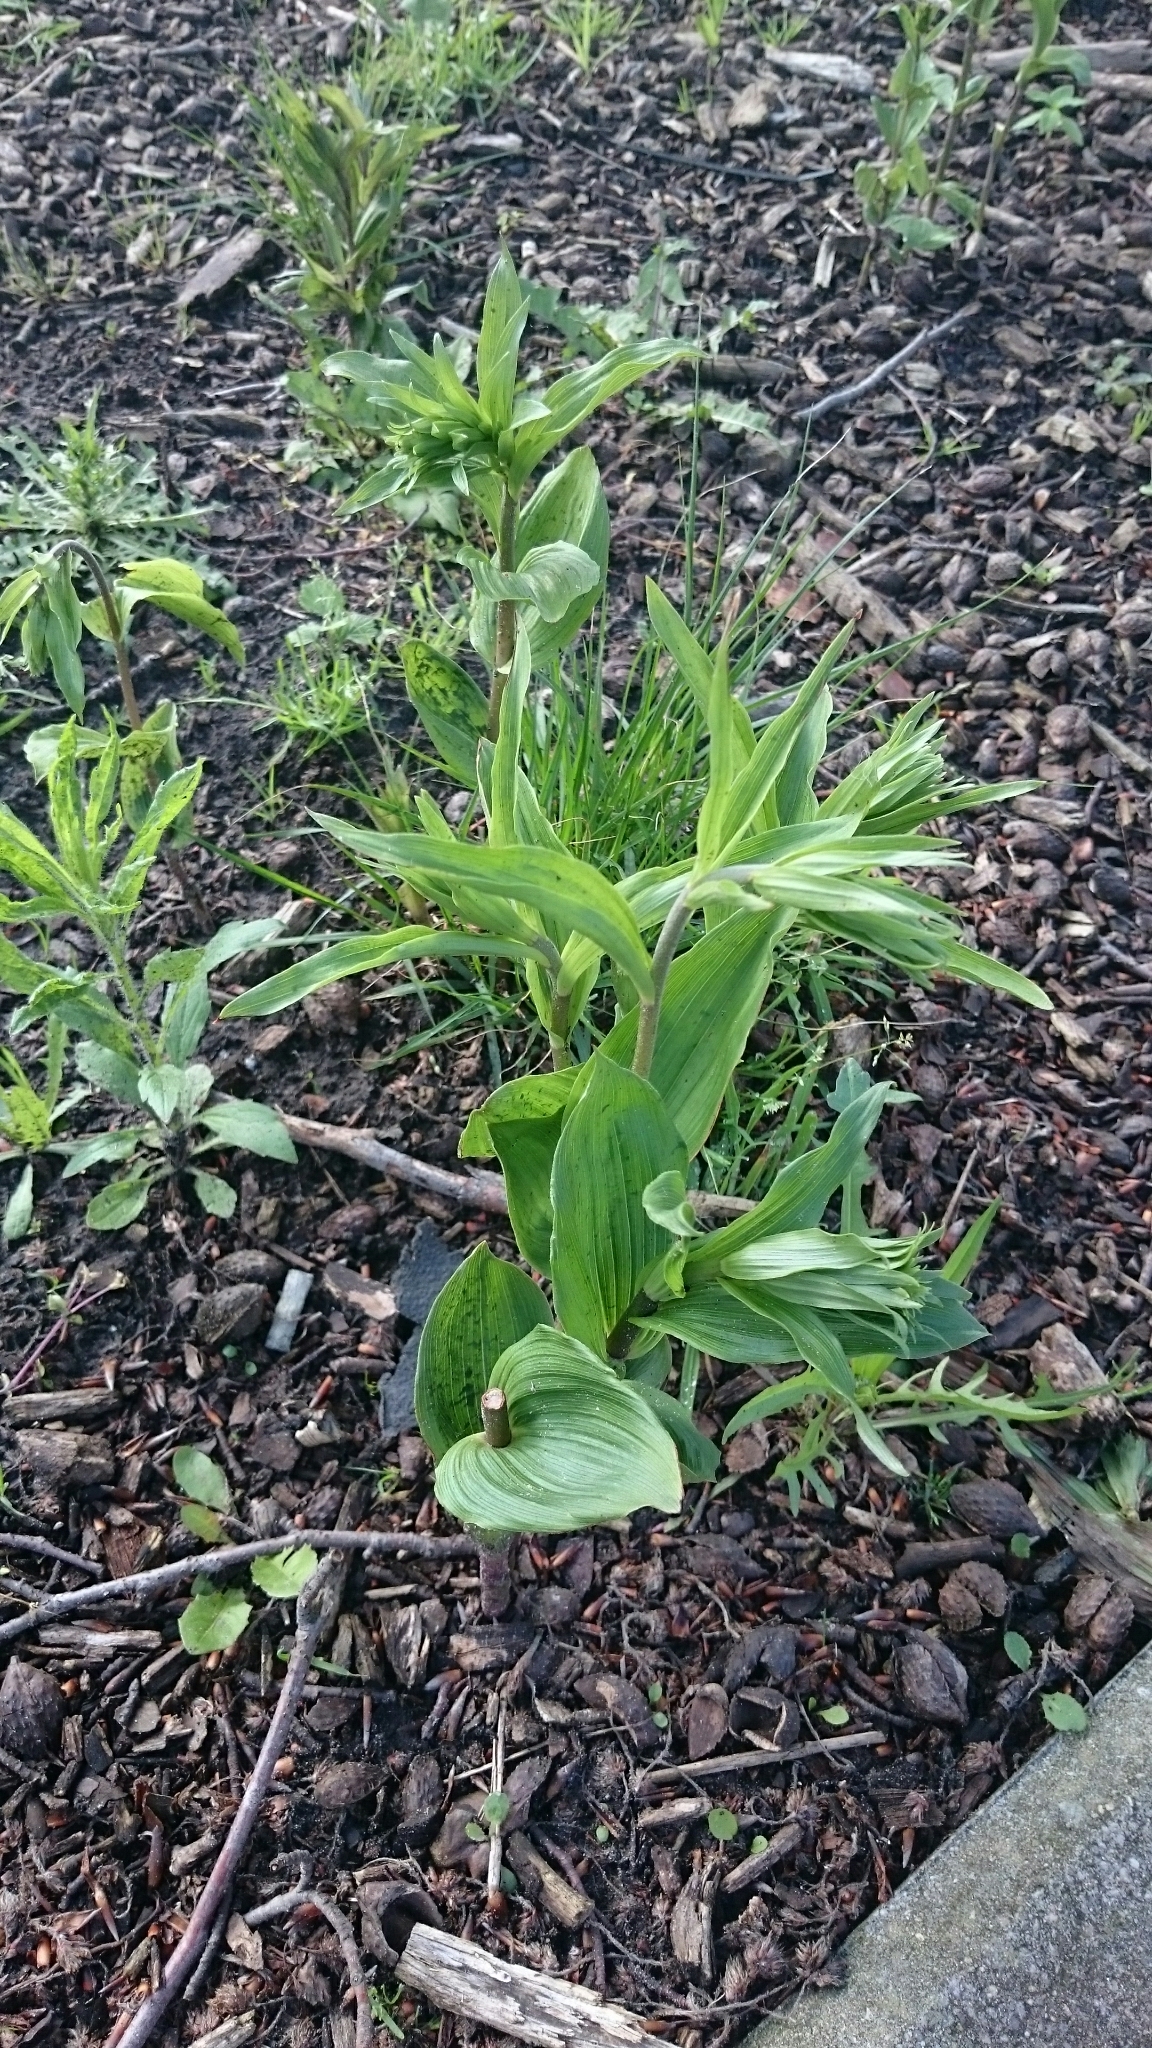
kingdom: Plantae
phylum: Tracheophyta
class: Liliopsida
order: Asparagales
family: Orchidaceae
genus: Epipactis
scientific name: Epipactis helleborine
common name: Broad-leaved helleborine
